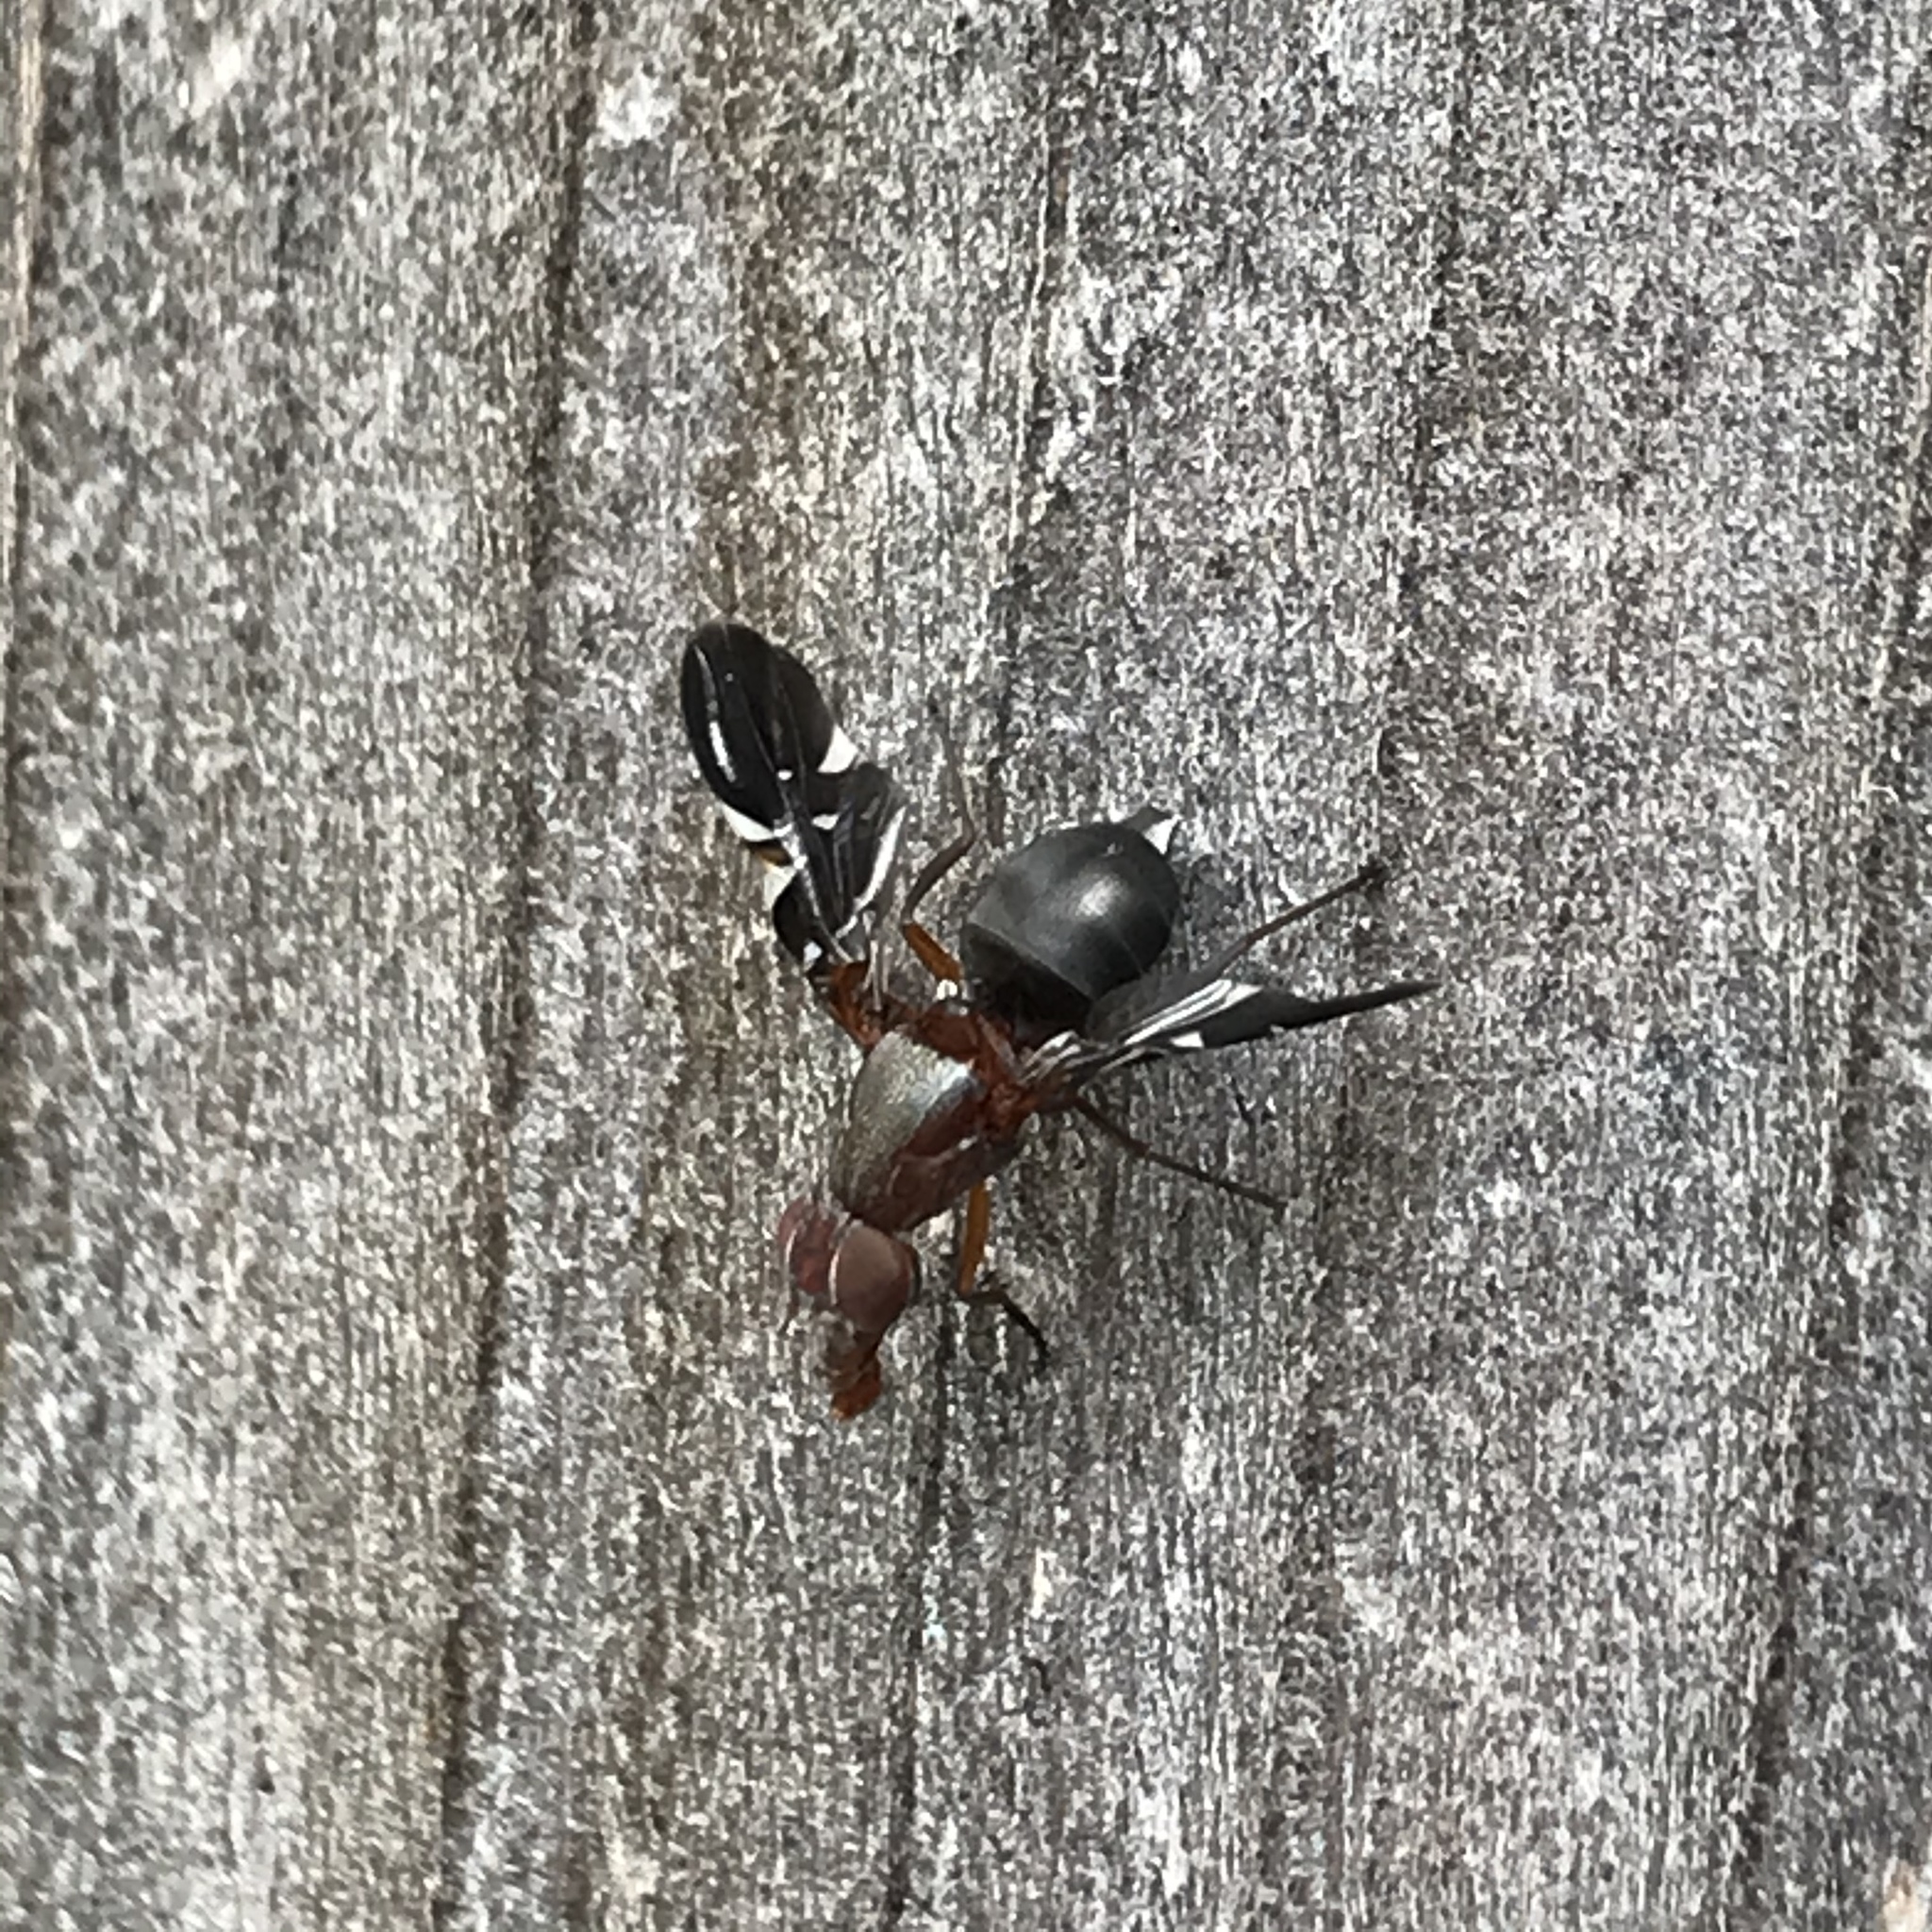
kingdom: Animalia
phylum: Arthropoda
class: Insecta
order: Diptera
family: Ulidiidae
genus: Delphinia
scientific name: Delphinia picta
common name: Common picture-winged fly
